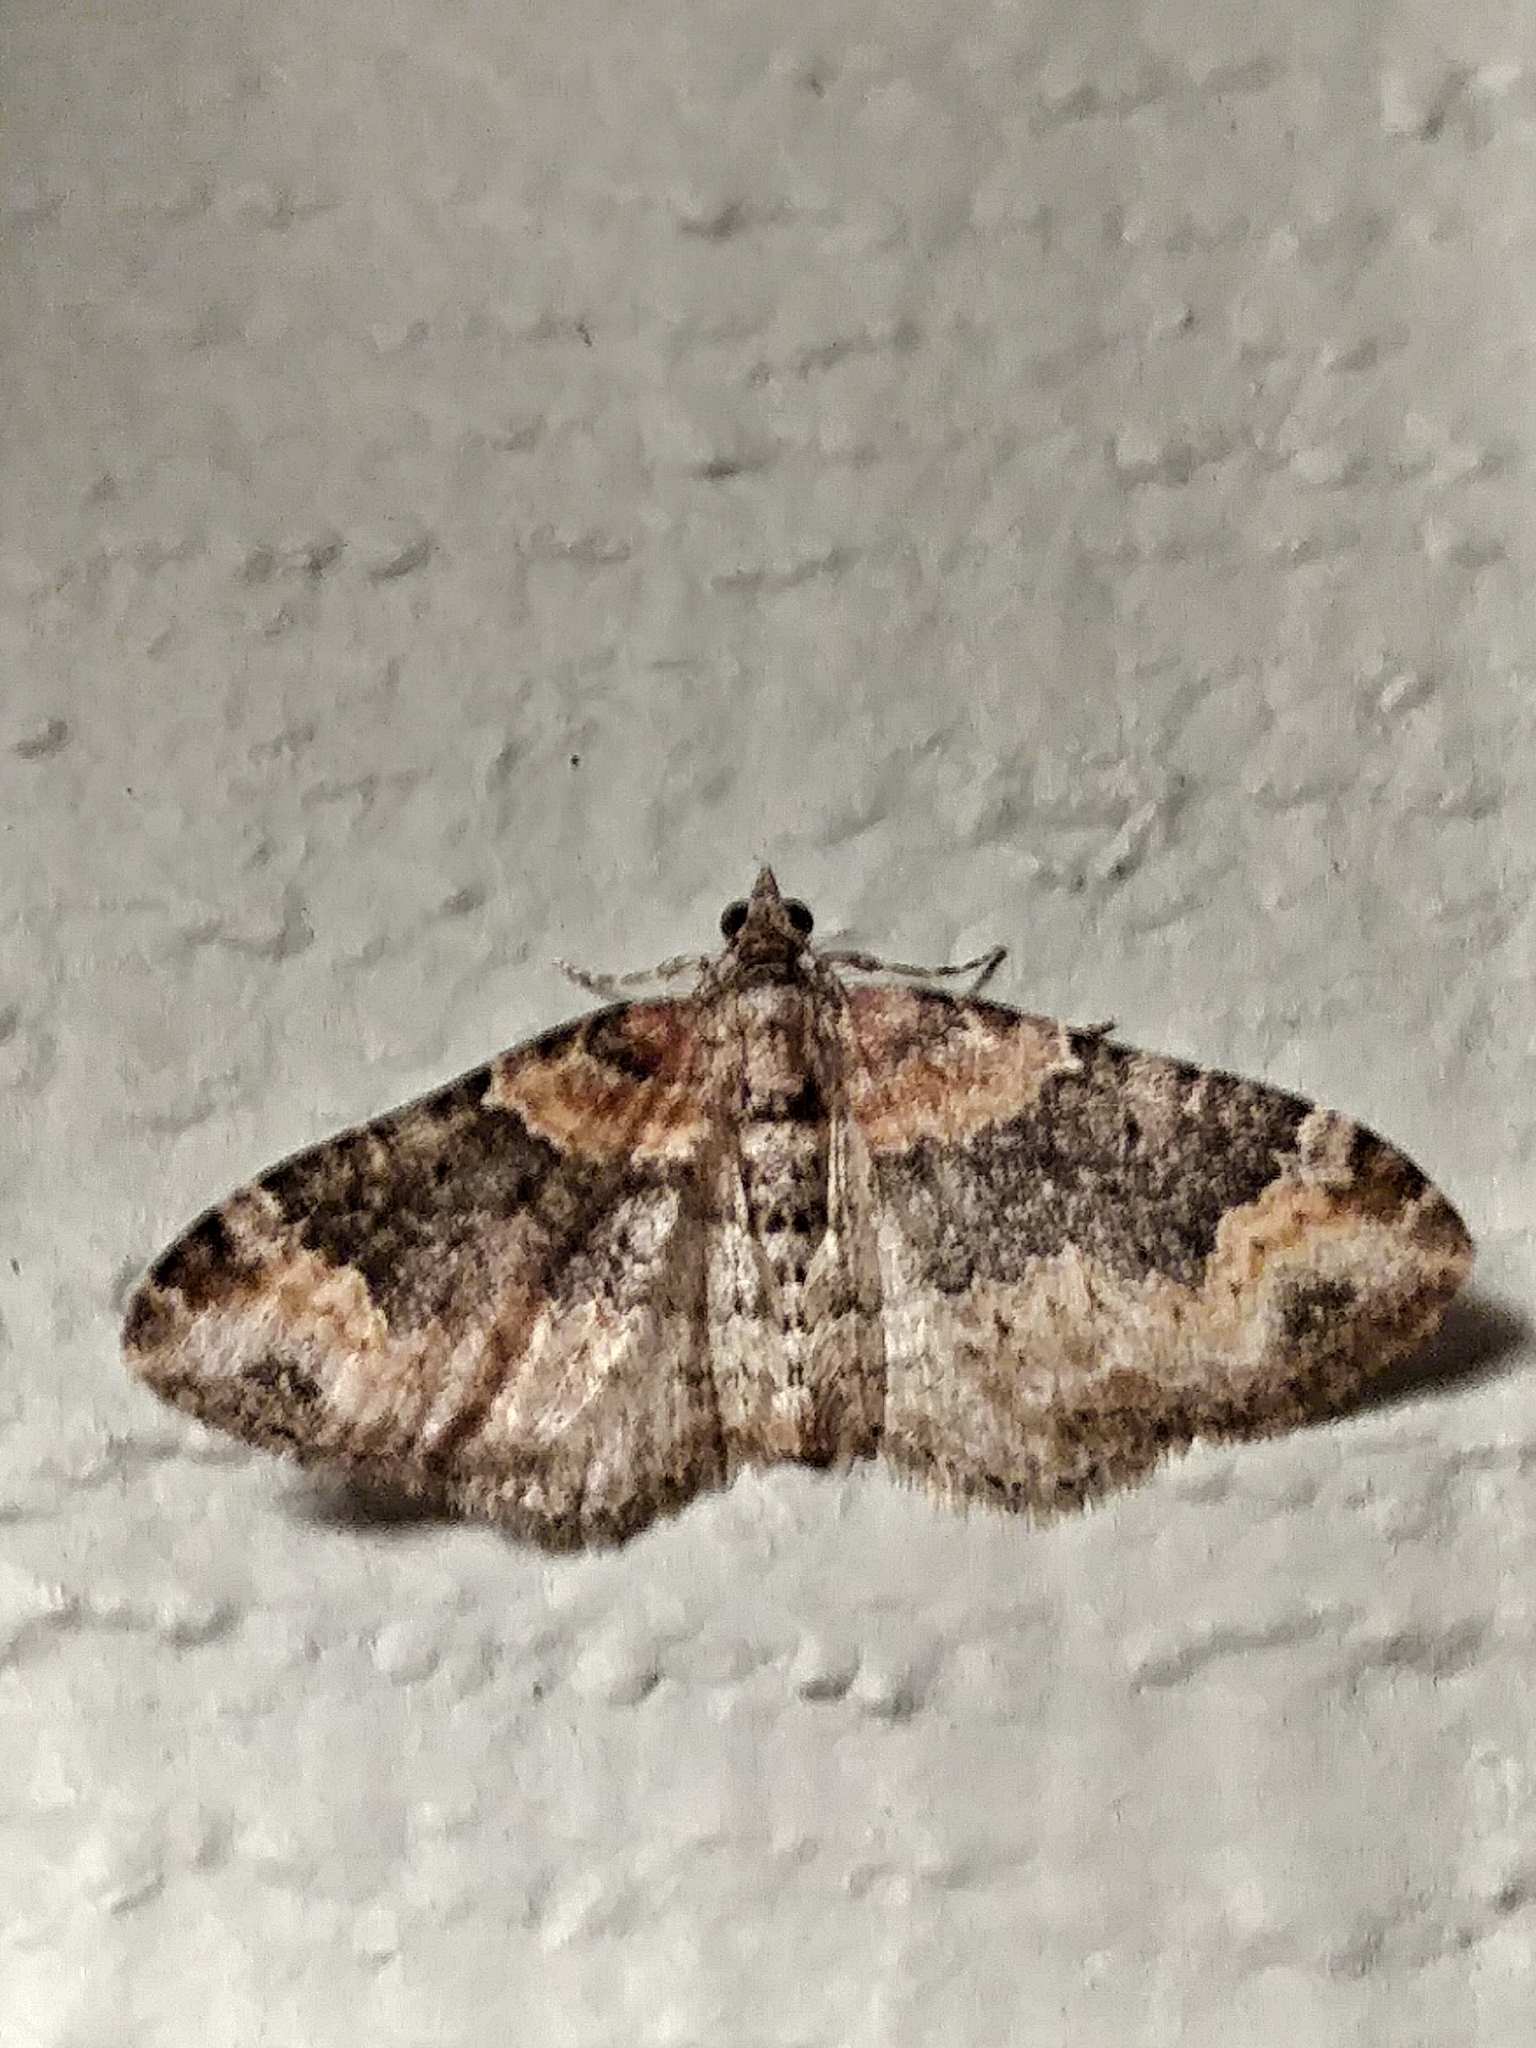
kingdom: Animalia
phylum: Arthropoda
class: Insecta
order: Lepidoptera
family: Geometridae
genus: Xanthorhoe
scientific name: Xanthorhoe ferrugata
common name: Dark-barred twin-spot carpet
